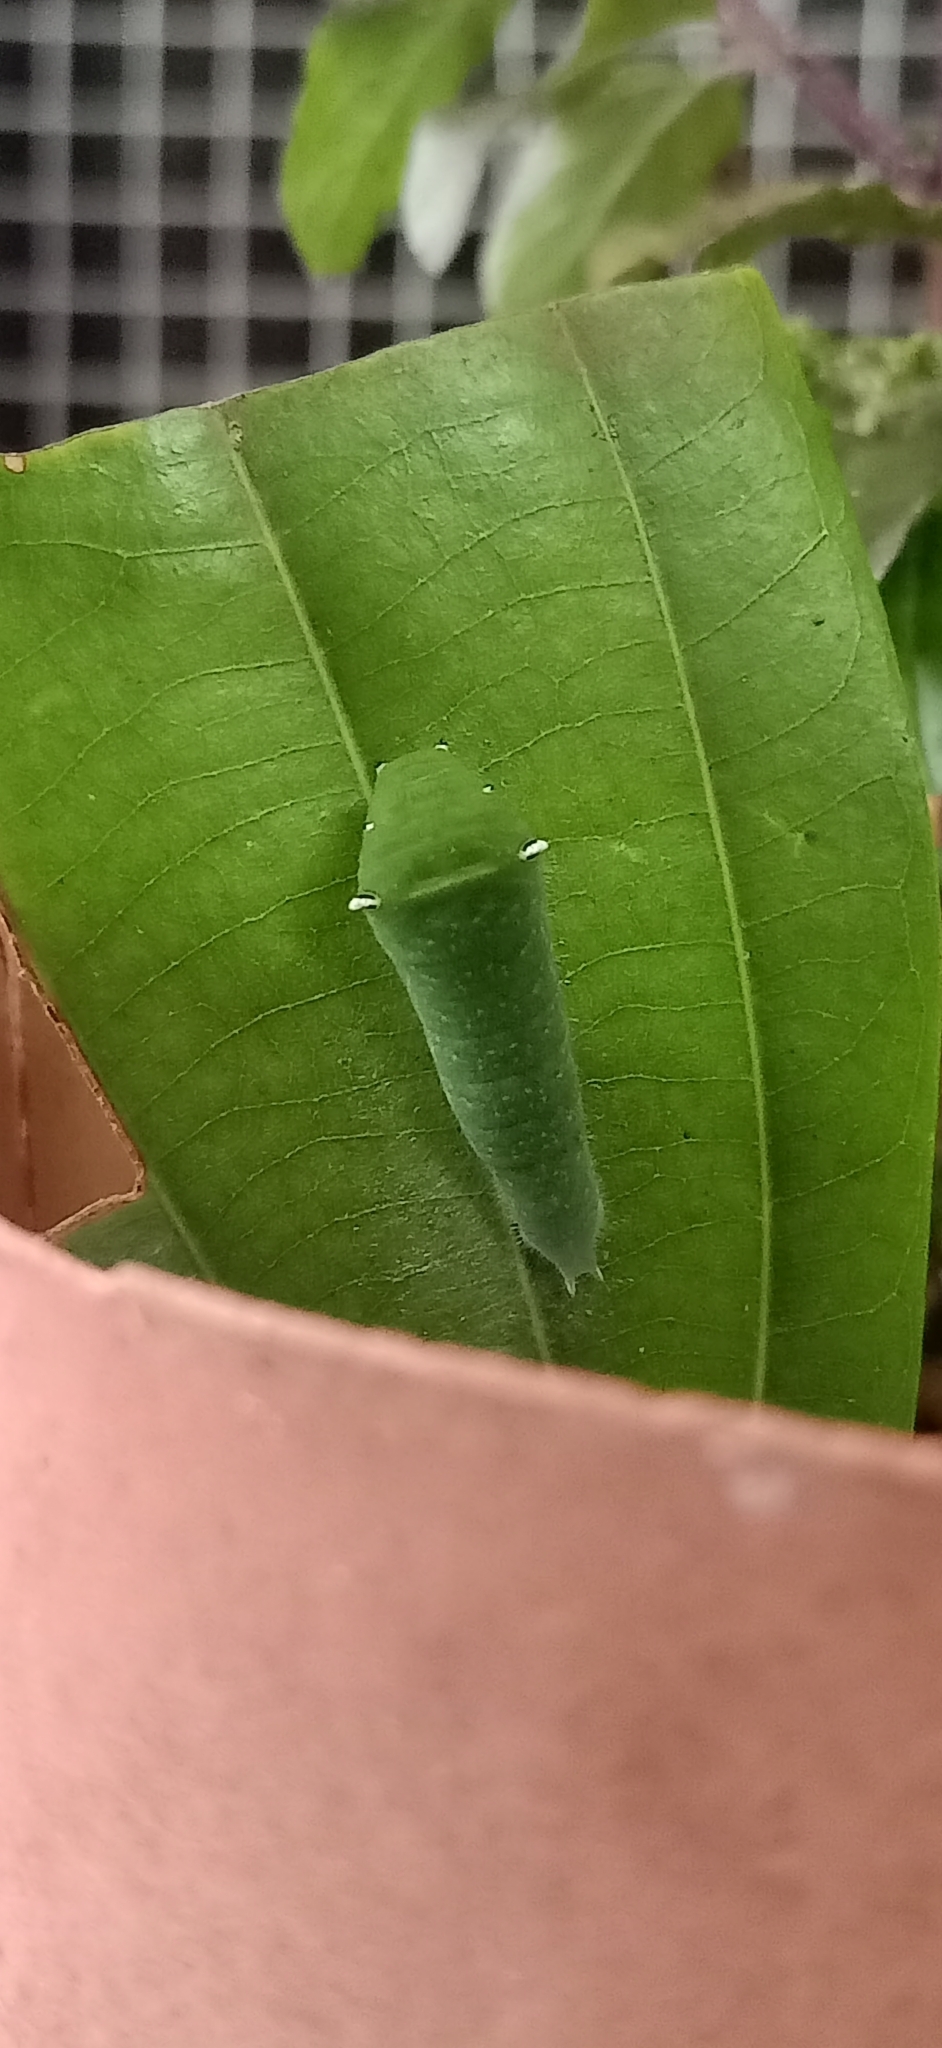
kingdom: Animalia
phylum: Arthropoda
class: Insecta
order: Lepidoptera
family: Papilionidae
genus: Graphium
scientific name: Graphium
